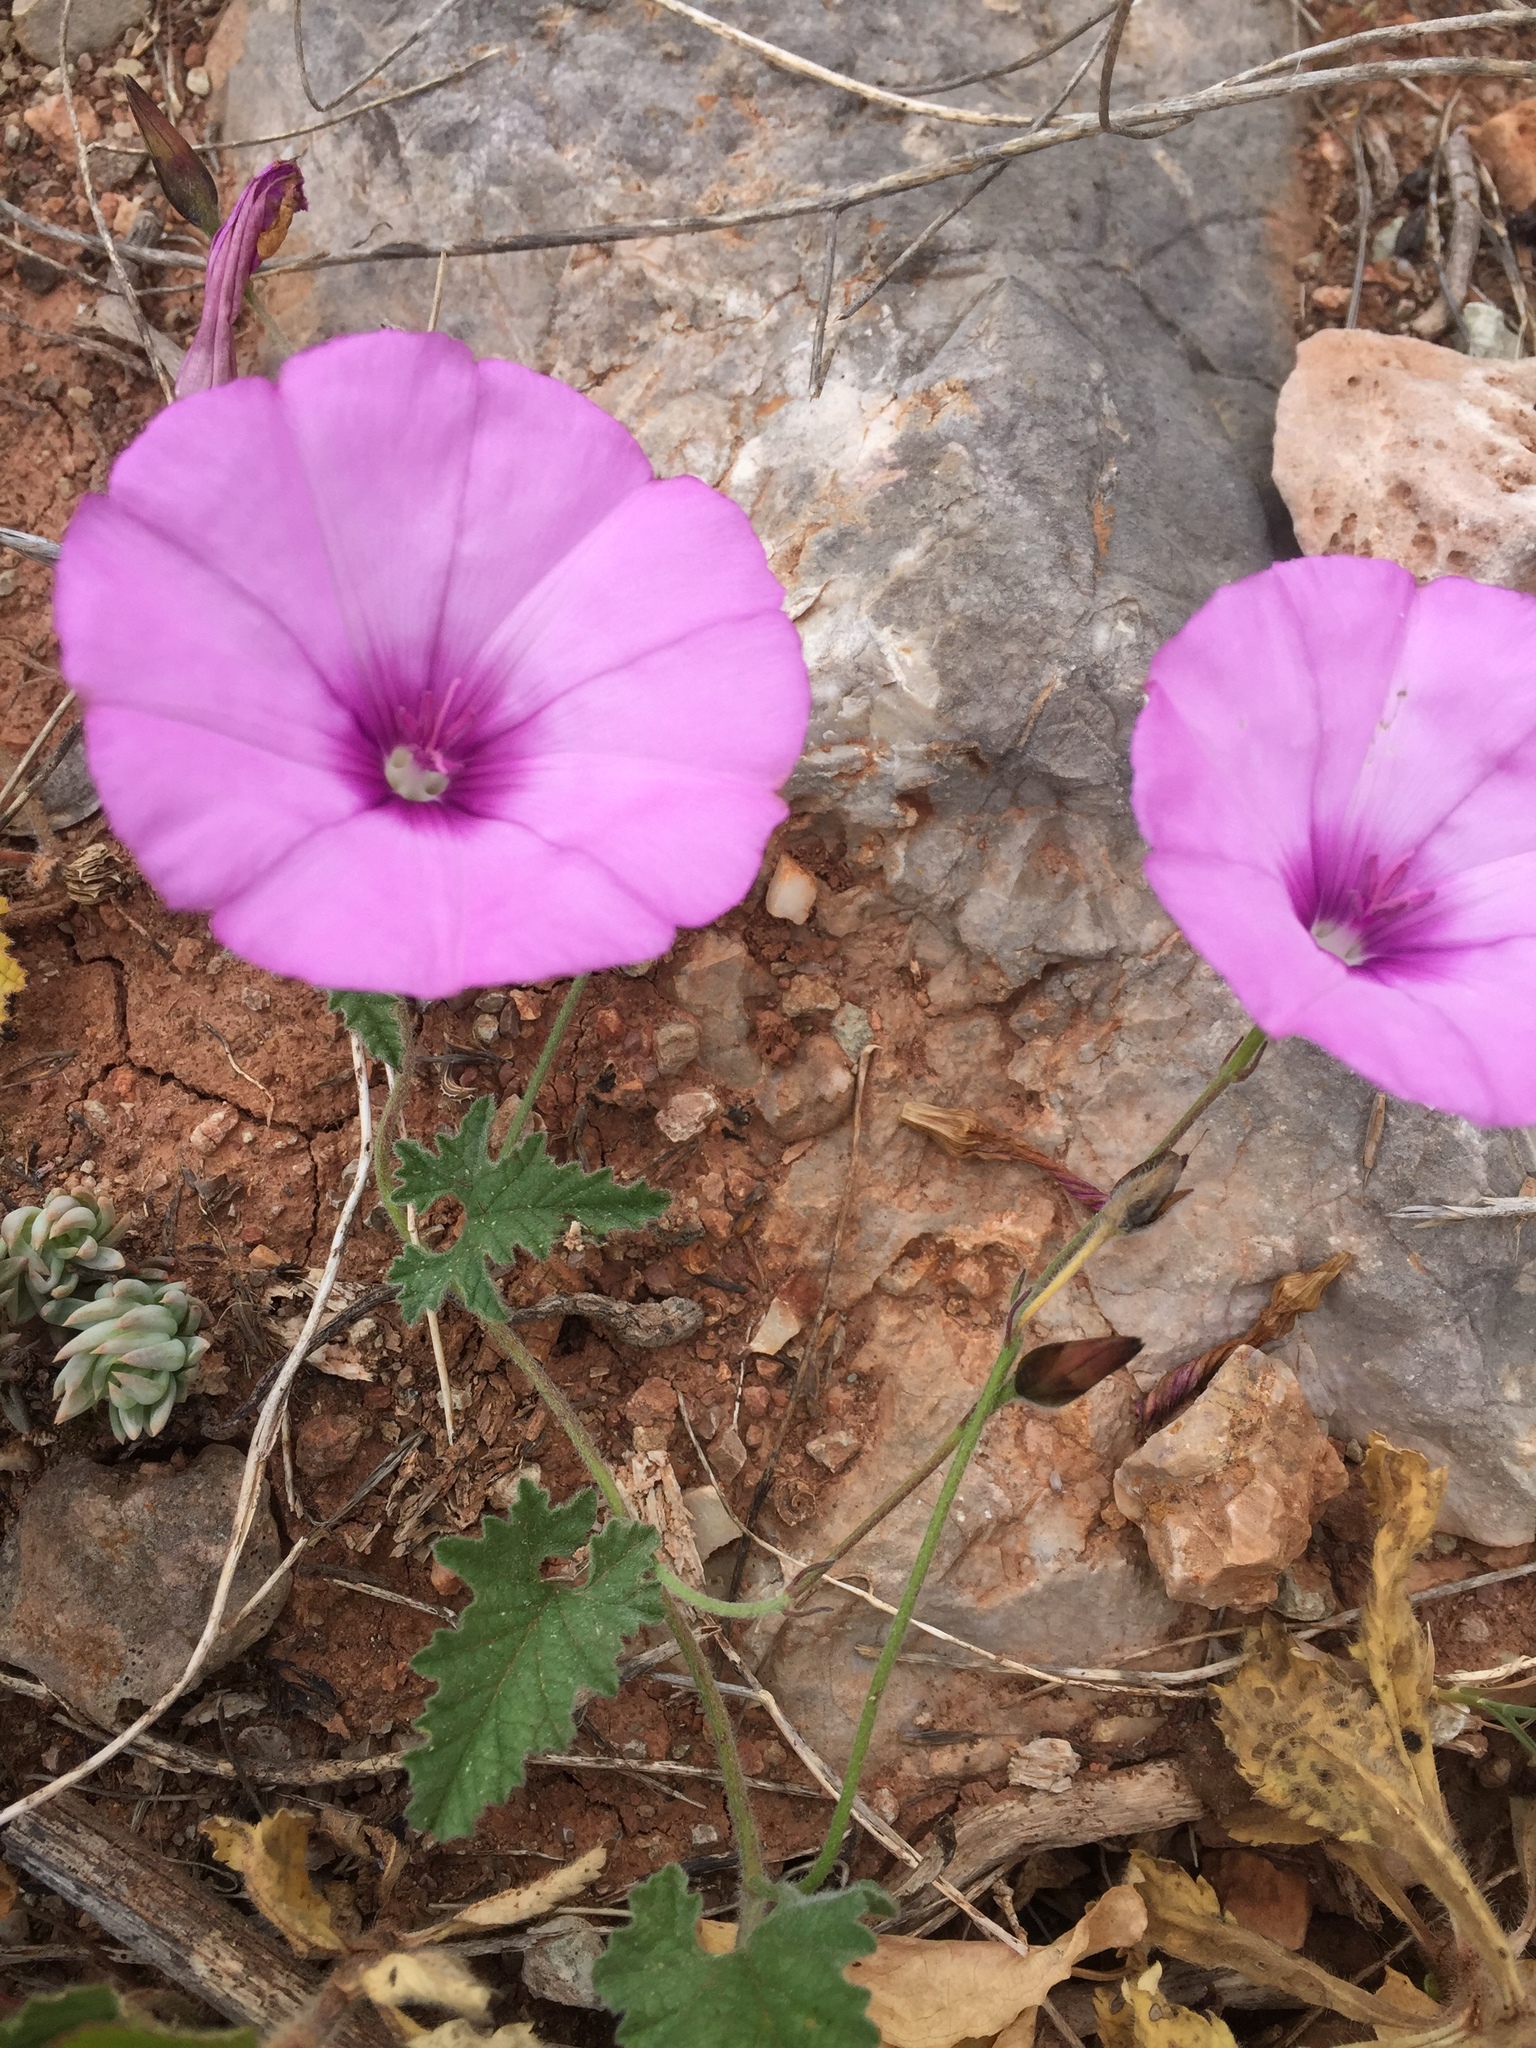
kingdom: Plantae
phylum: Tracheophyta
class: Magnoliopsida
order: Solanales
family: Convolvulaceae
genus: Convolvulus
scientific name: Convolvulus althaeoides
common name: Mallow bindweed
